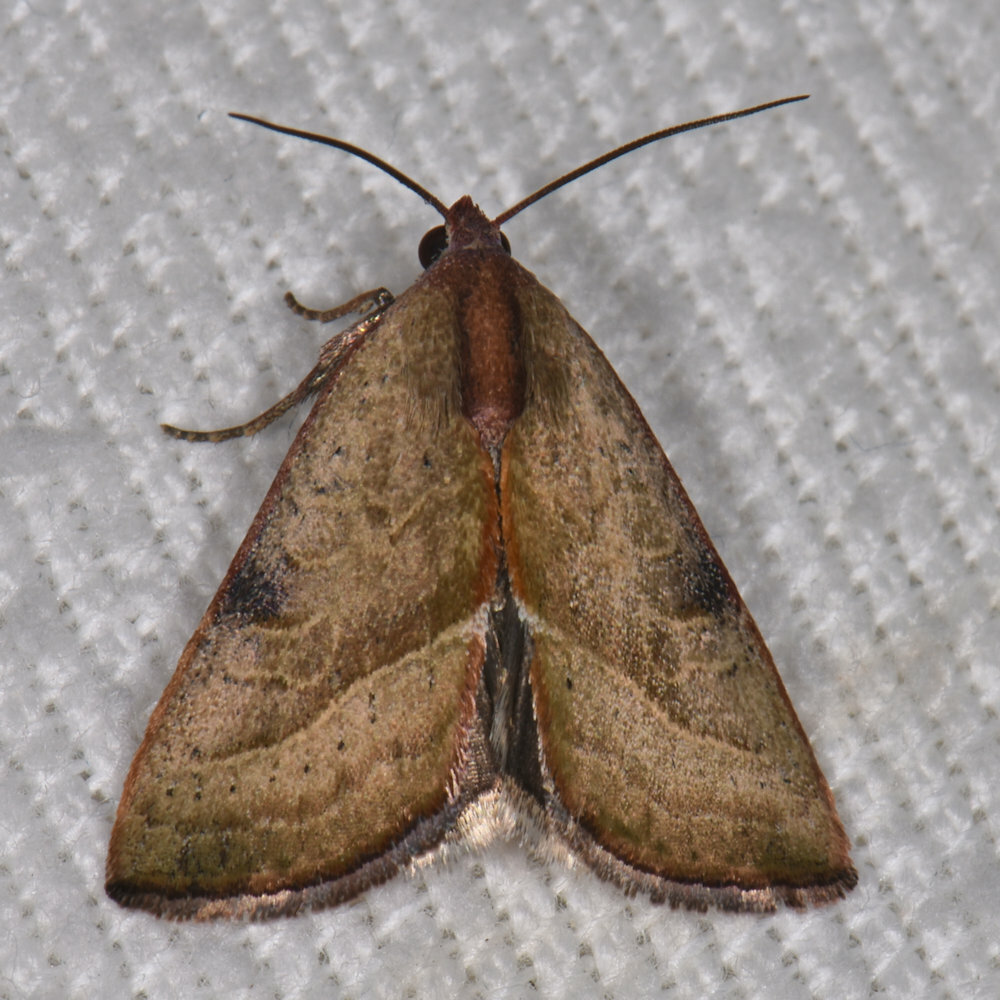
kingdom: Animalia
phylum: Arthropoda
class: Insecta
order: Lepidoptera
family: Noctuidae
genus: Galgula
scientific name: Galgula partita
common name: Wedgeling
